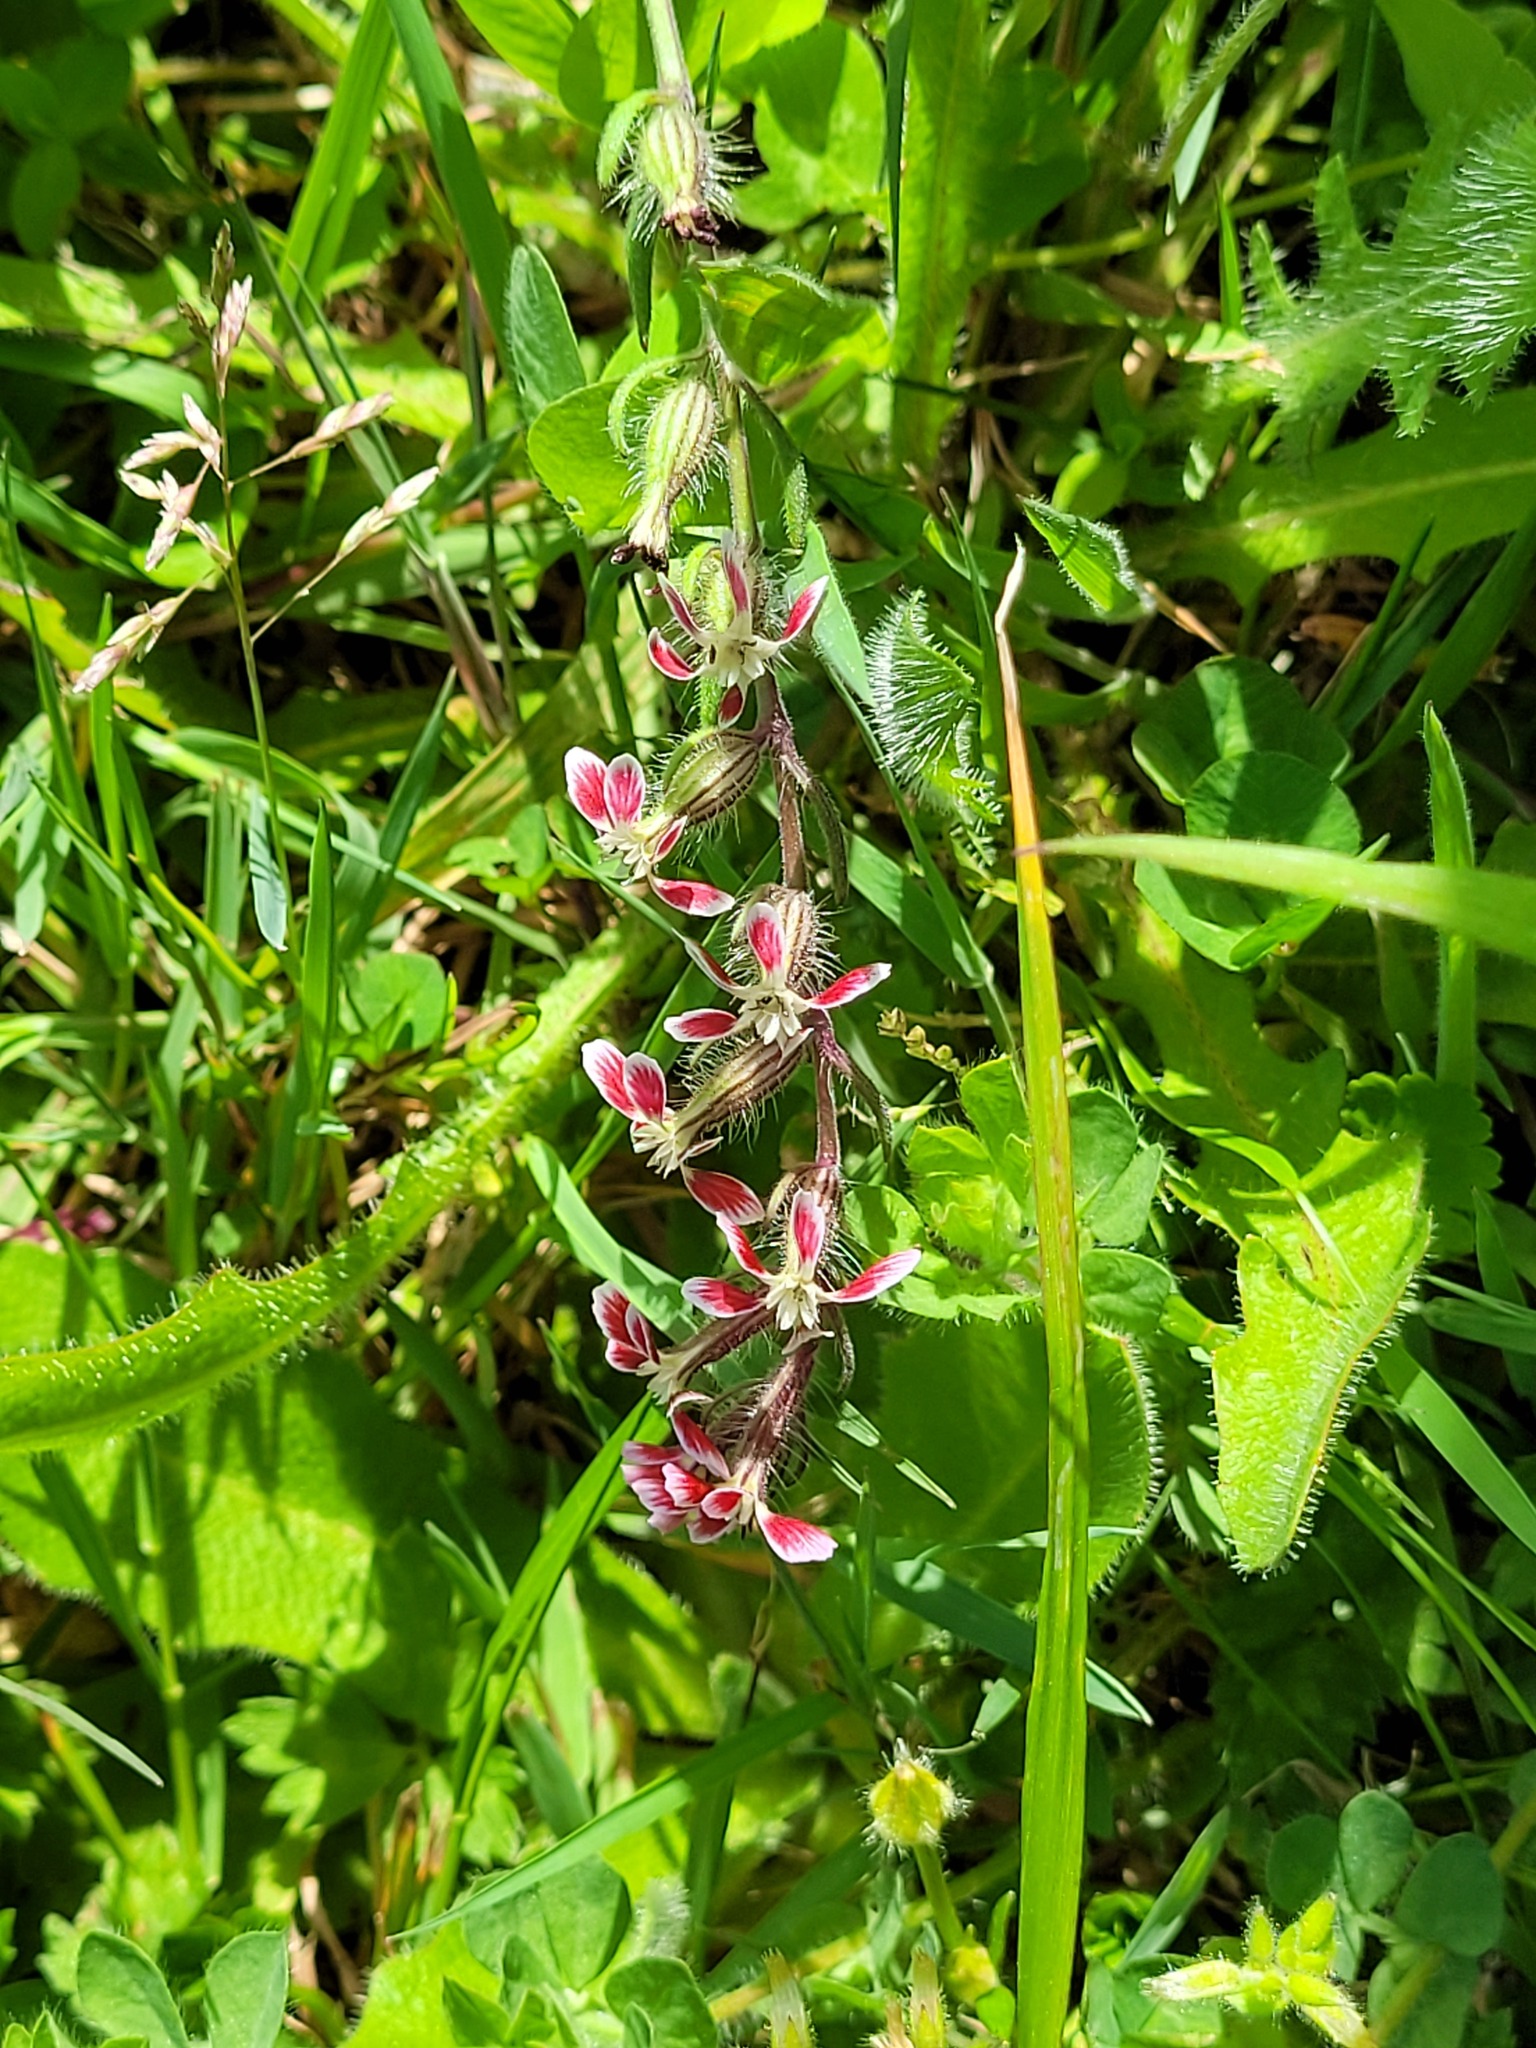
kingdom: Plantae
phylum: Tracheophyta
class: Magnoliopsida
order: Caryophyllales
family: Caryophyllaceae
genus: Silene
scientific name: Silene gallica
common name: Small-flowered catchfly
